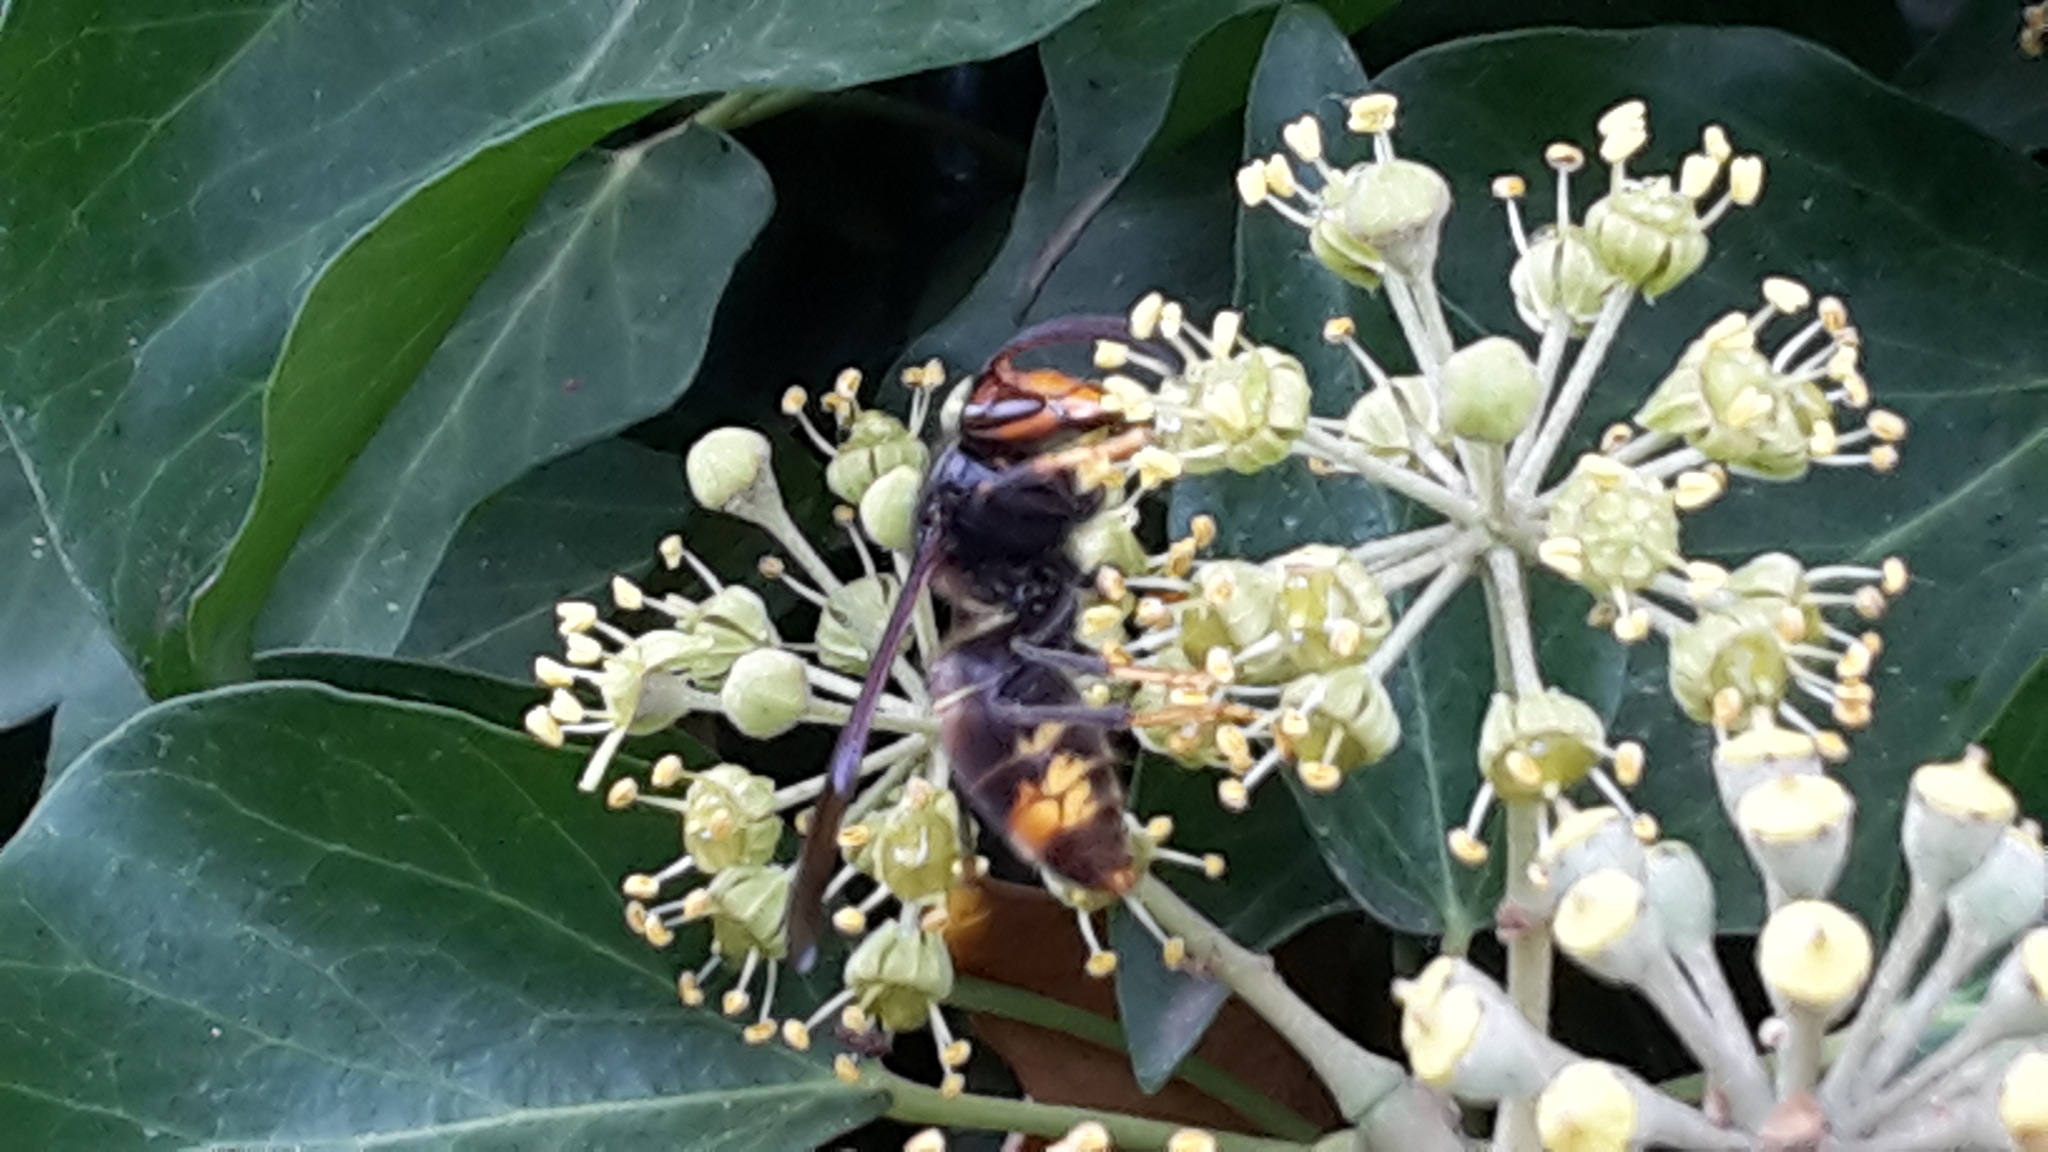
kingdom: Animalia
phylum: Arthropoda
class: Insecta
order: Hymenoptera
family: Vespidae
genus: Vespa
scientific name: Vespa velutina
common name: Asian hornet
